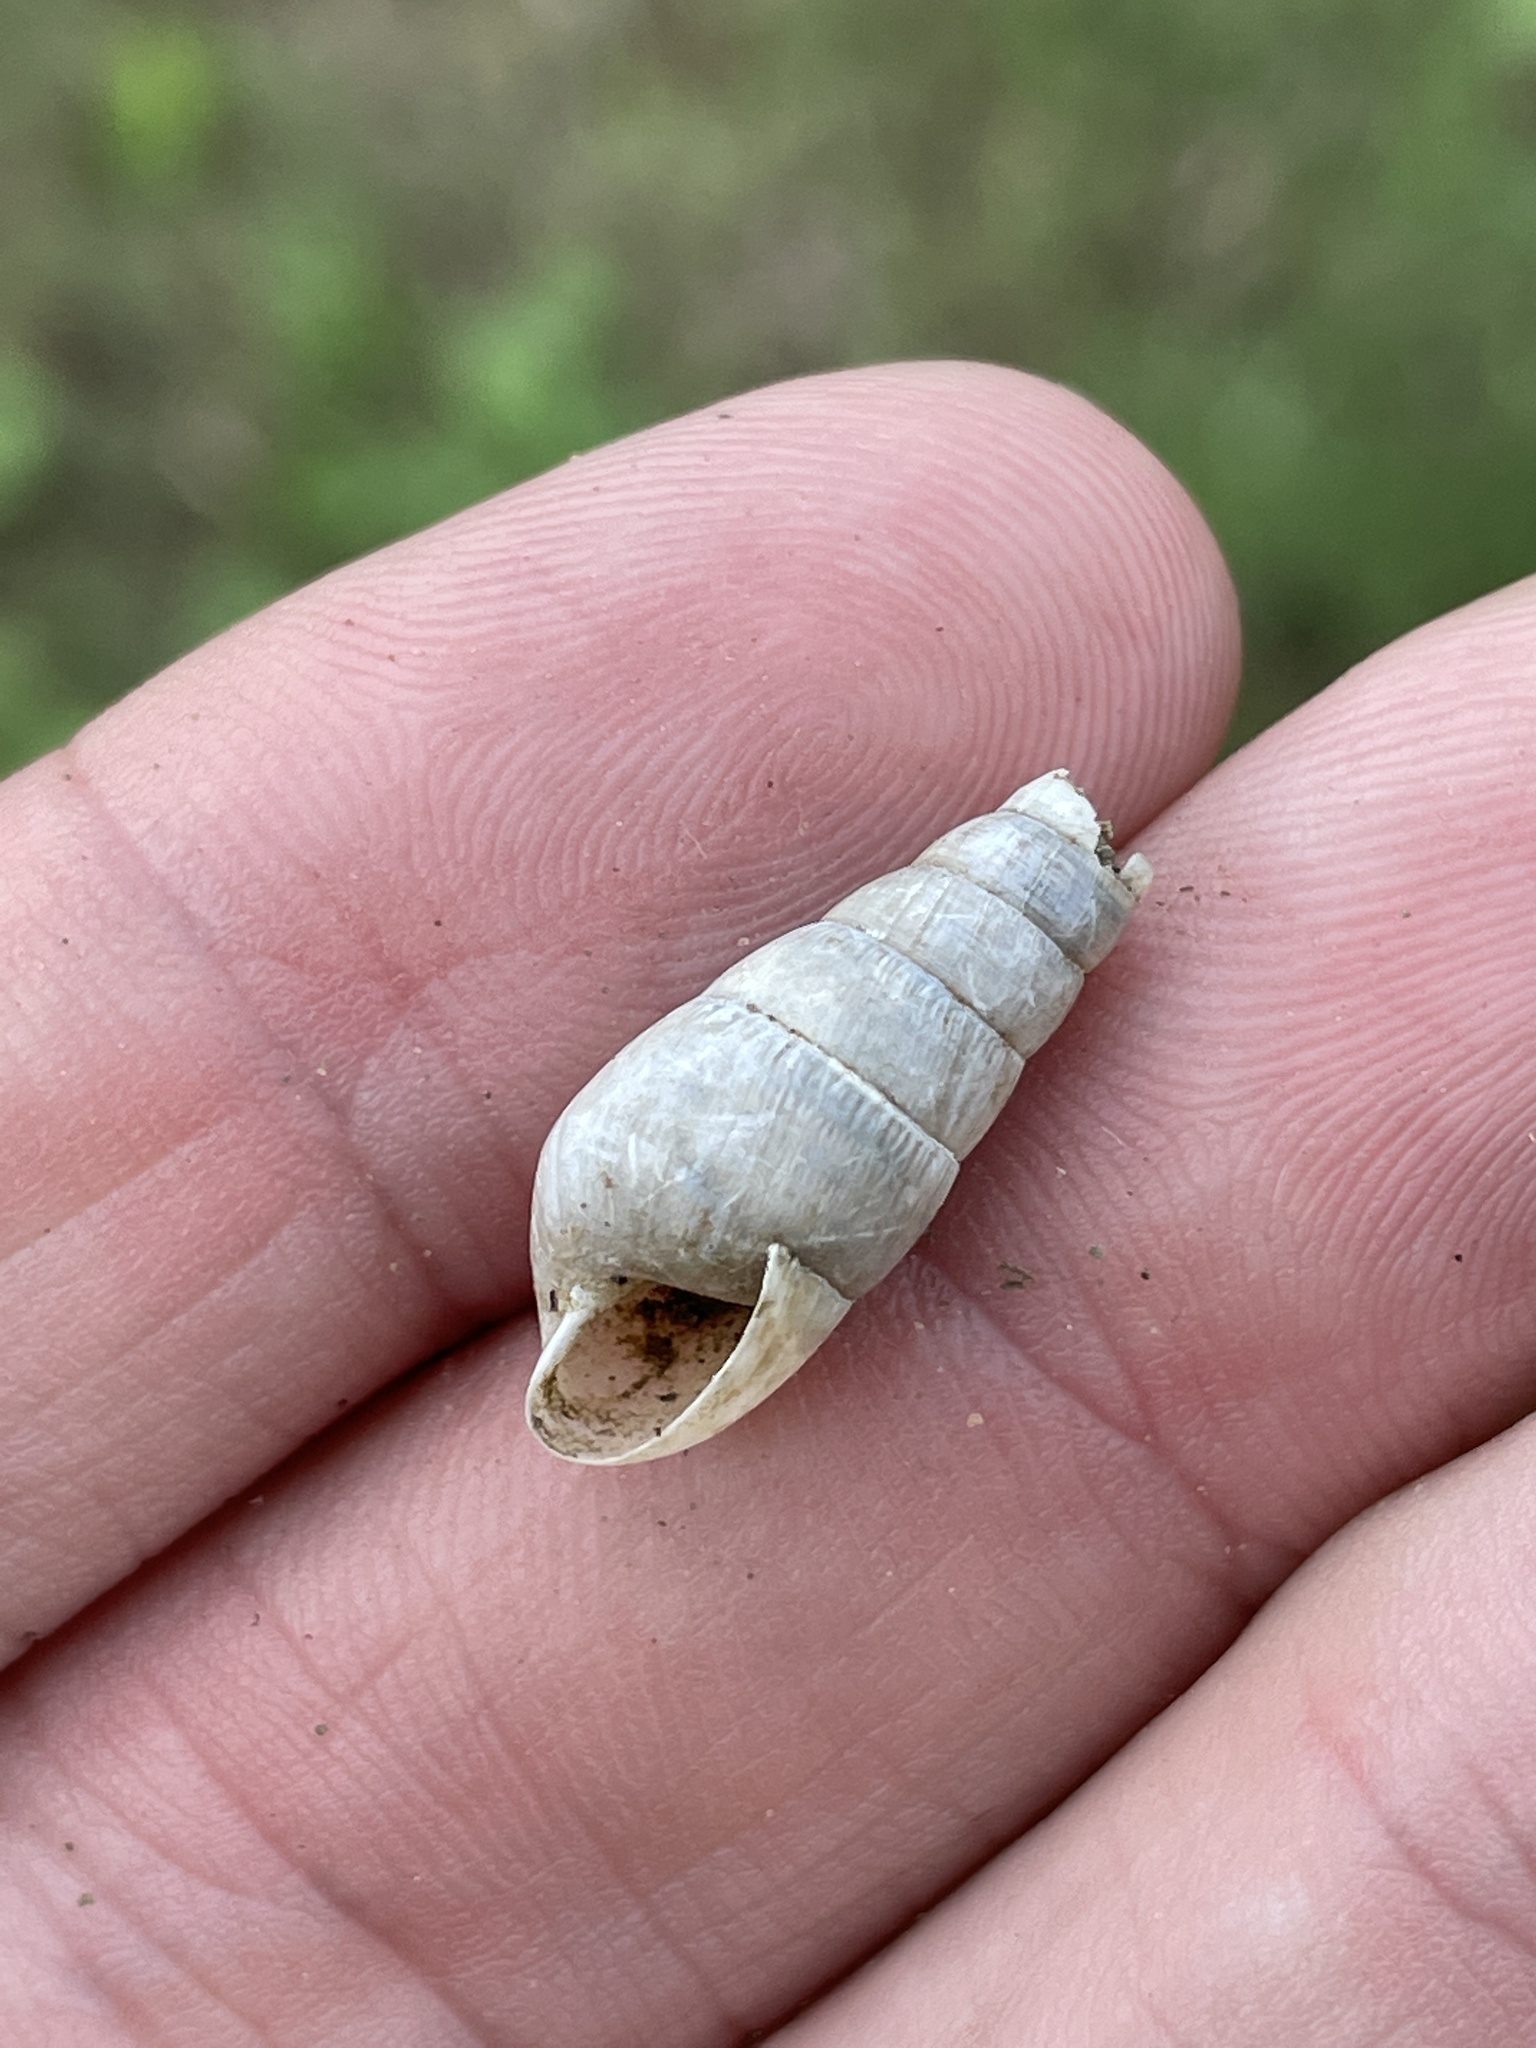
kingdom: Animalia
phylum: Mollusca
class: Gastropoda
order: Stylommatophora
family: Achatinidae
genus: Rumina
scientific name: Rumina decollata
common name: Decollate snail
